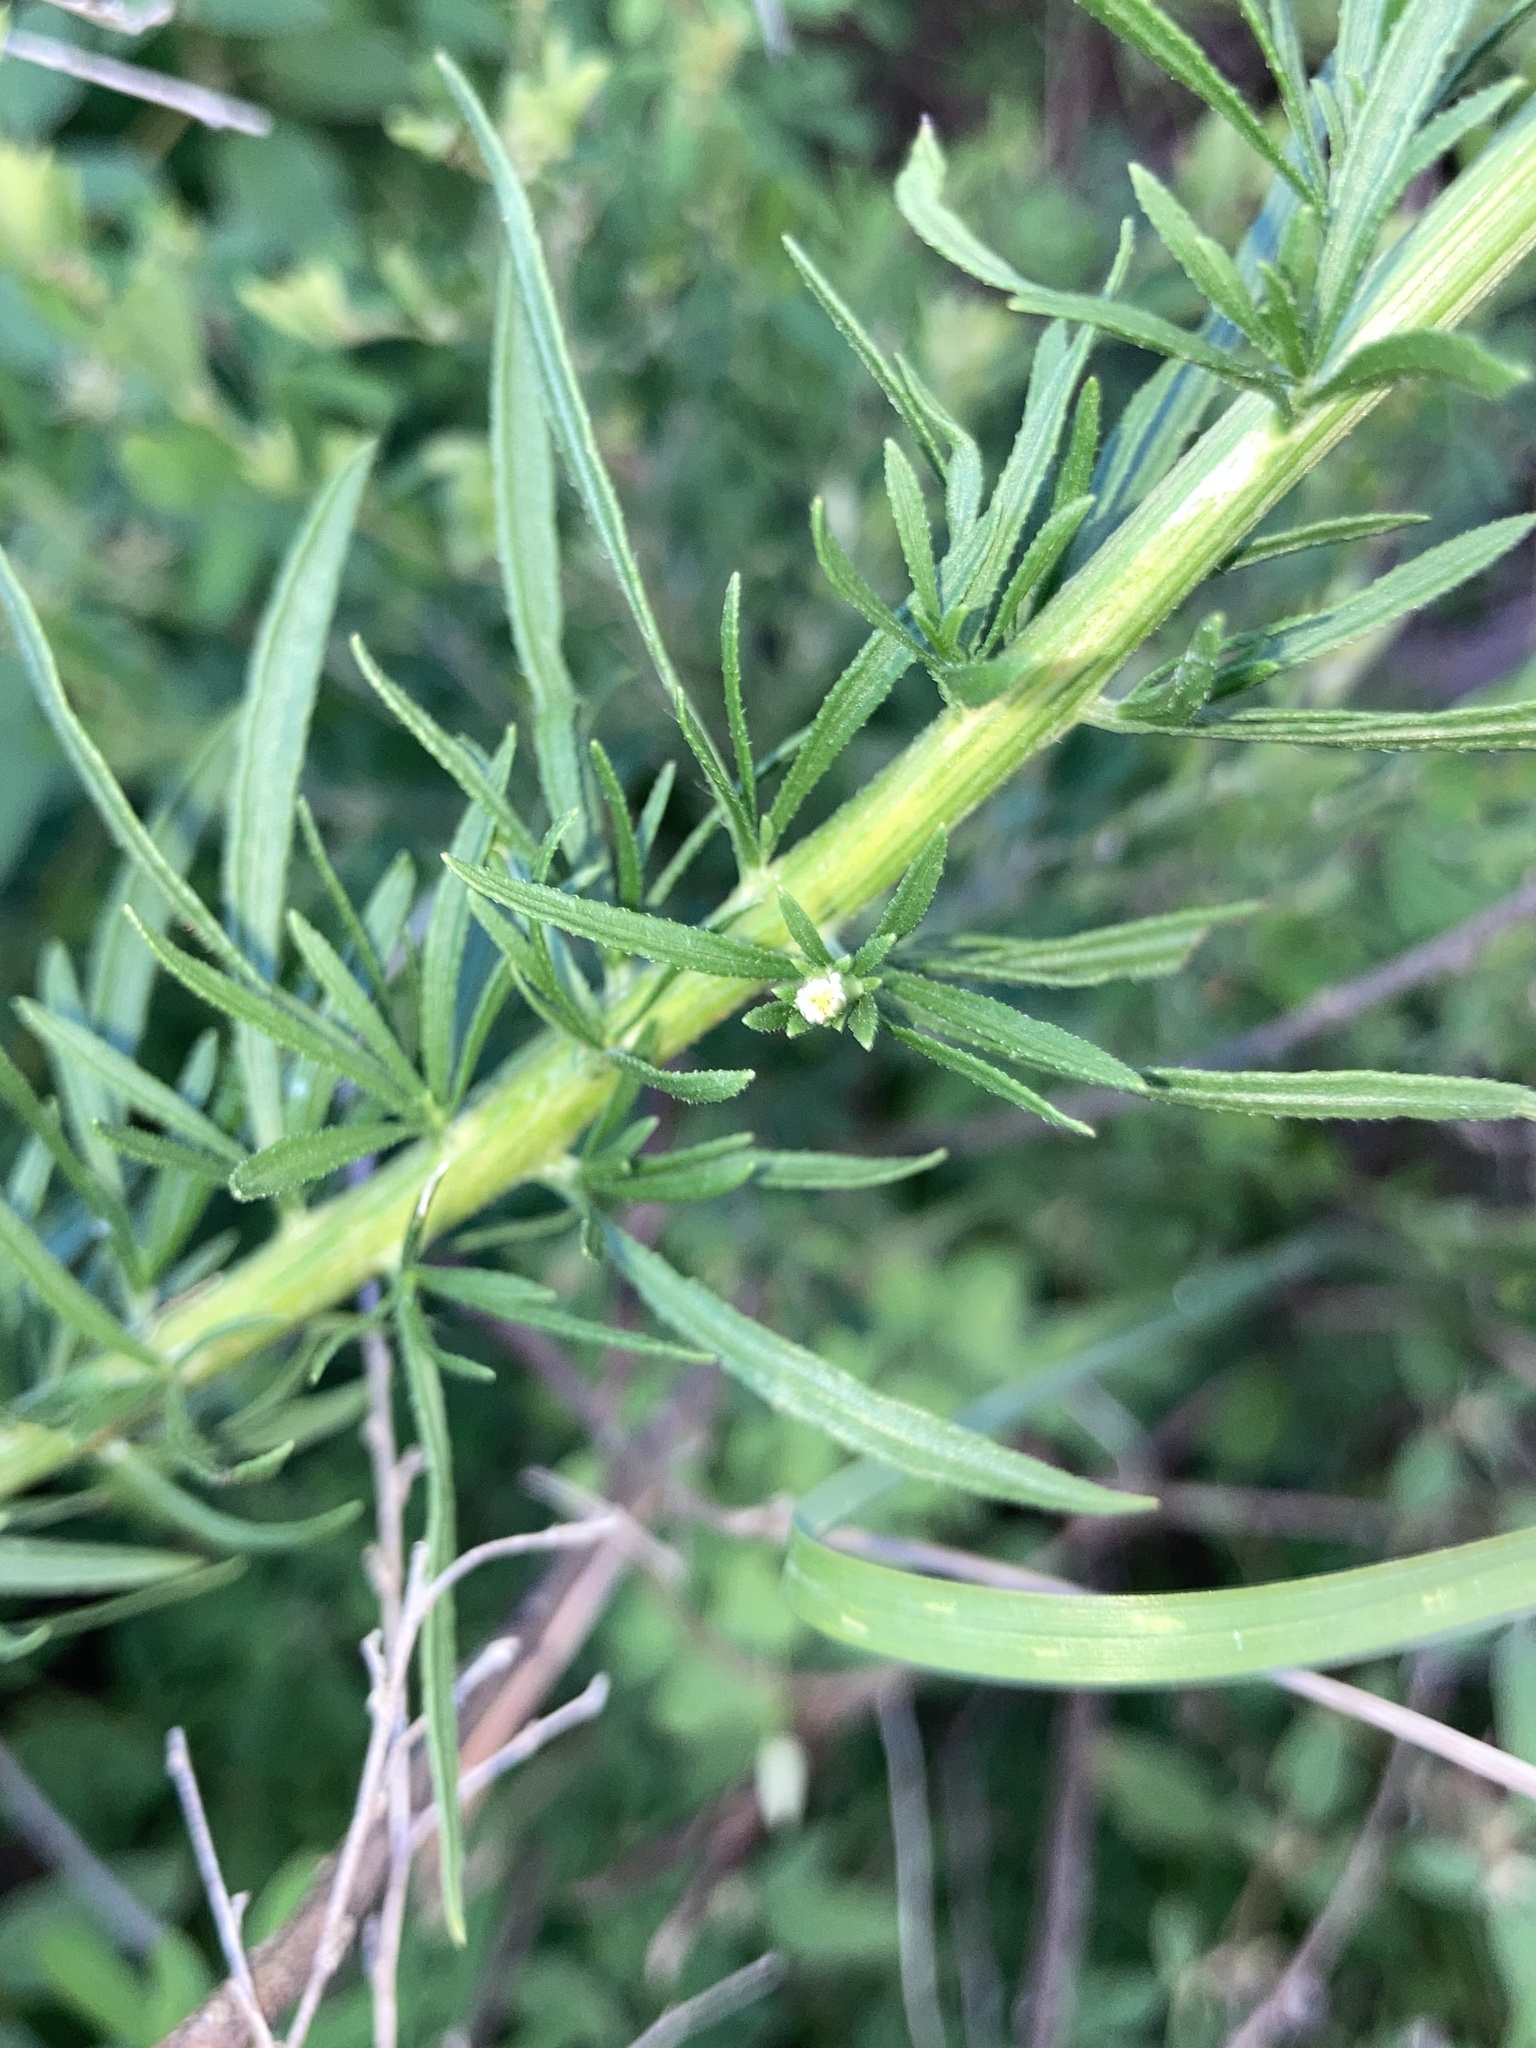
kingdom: Plantae
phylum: Tracheophyta
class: Magnoliopsida
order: Asterales
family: Asteraceae
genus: Erigeron
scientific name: Erigeron canadensis
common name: Canadian fleabane
